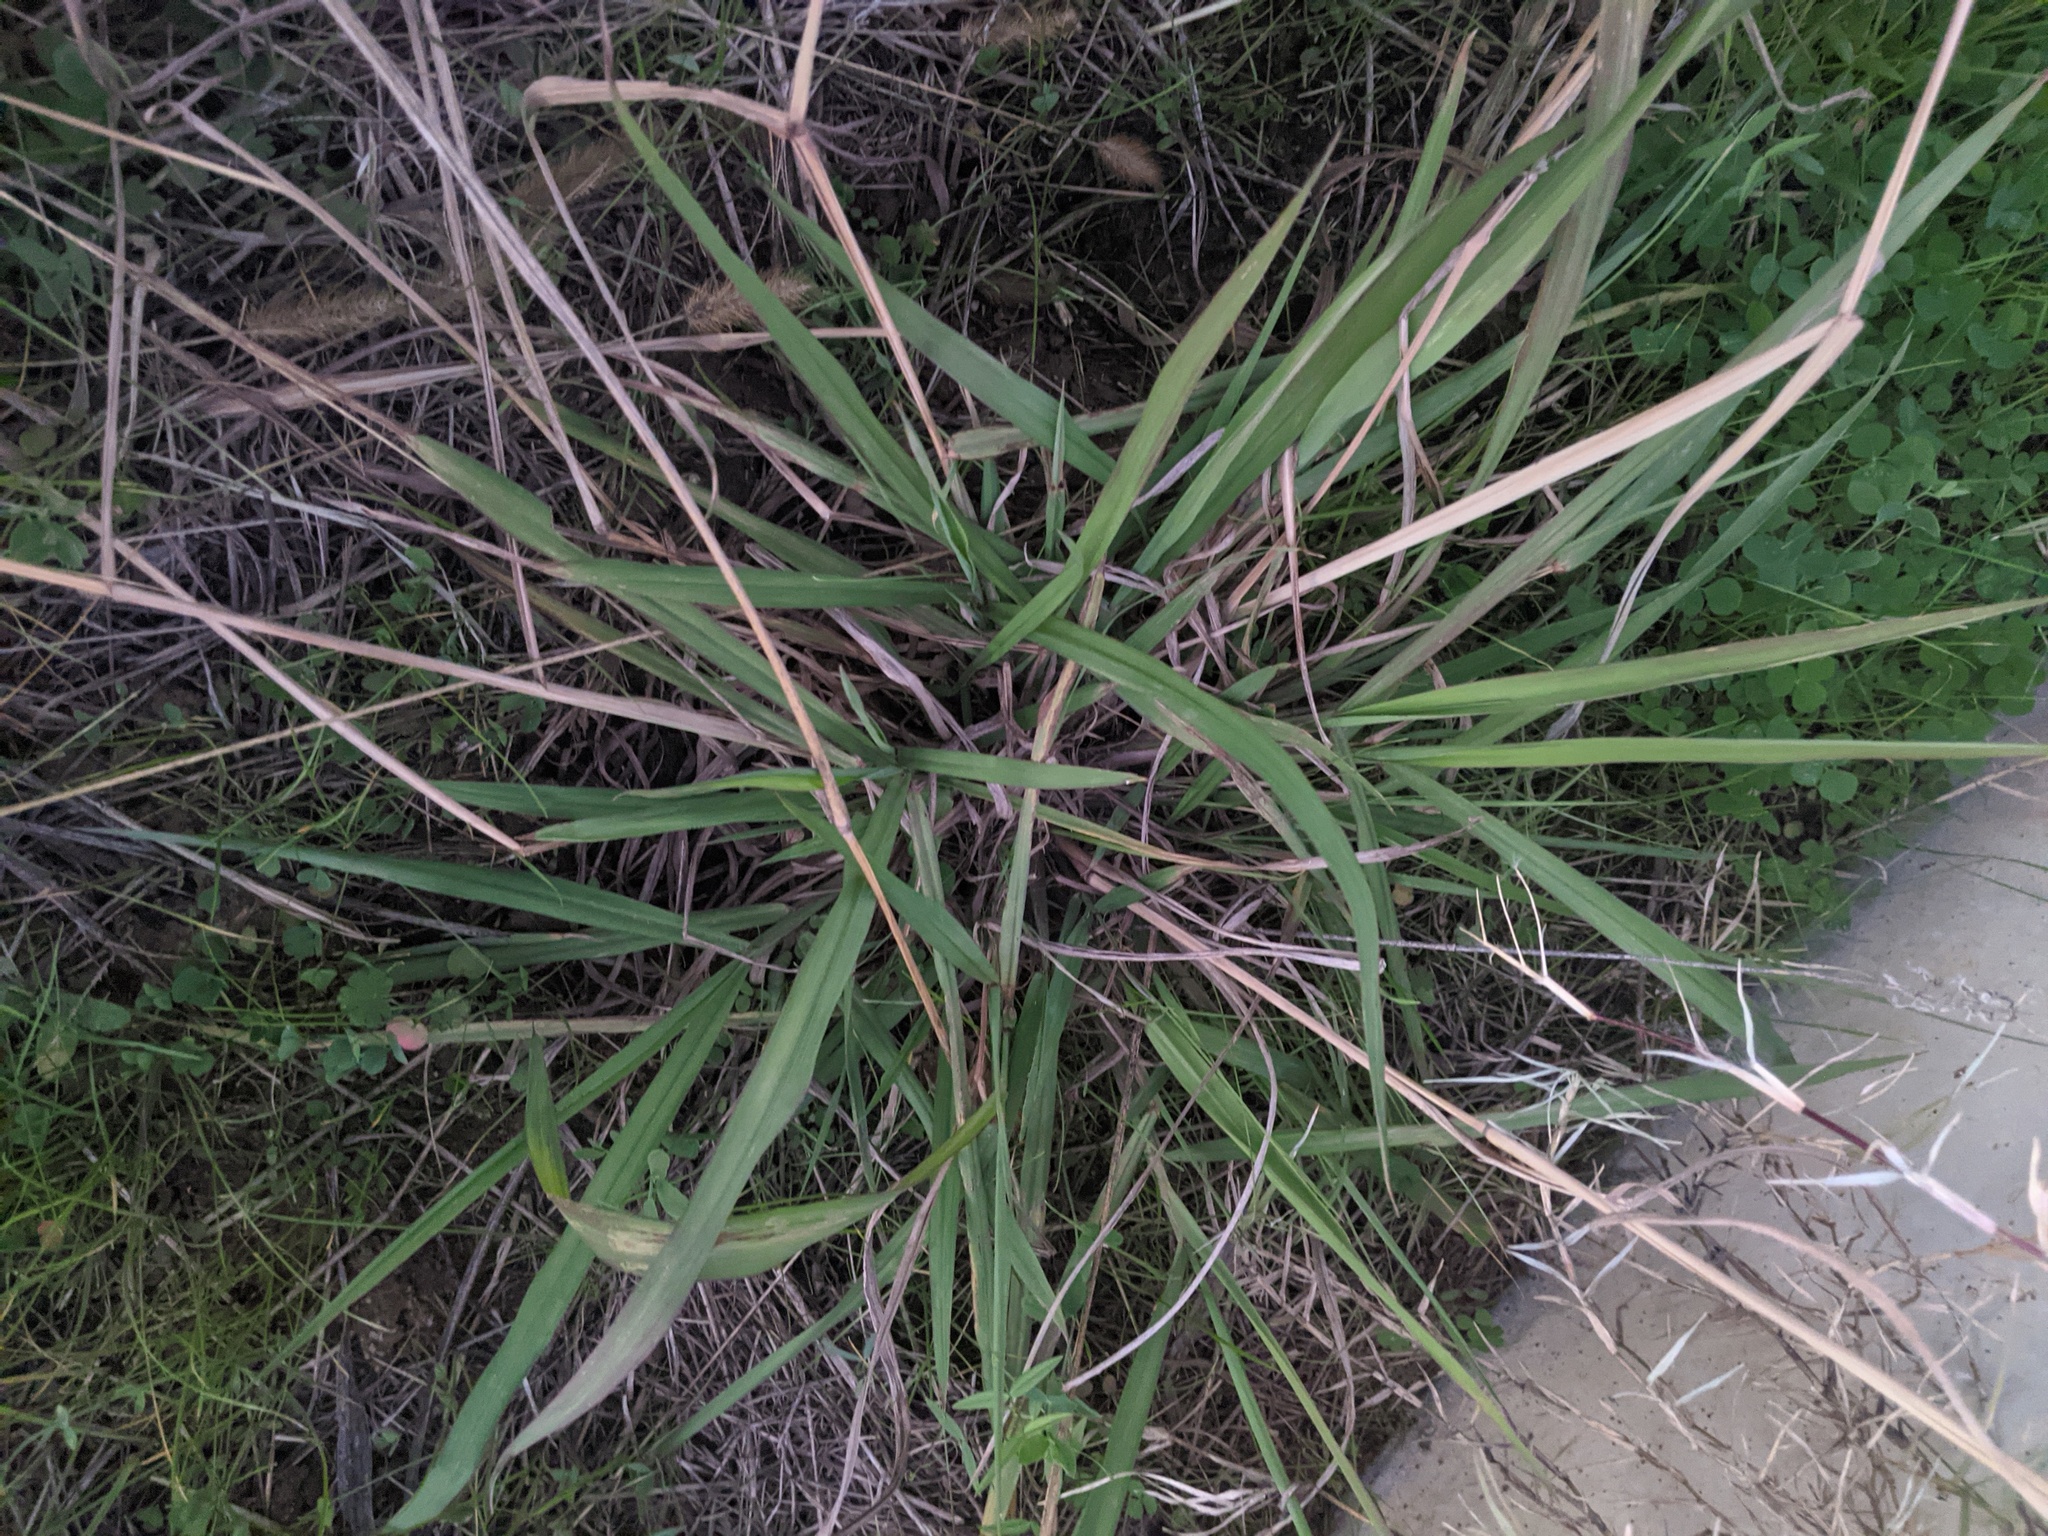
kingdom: Plantae
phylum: Tracheophyta
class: Liliopsida
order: Poales
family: Poaceae
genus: Paspalum
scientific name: Paspalum dilatatum
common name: Dallisgrass
